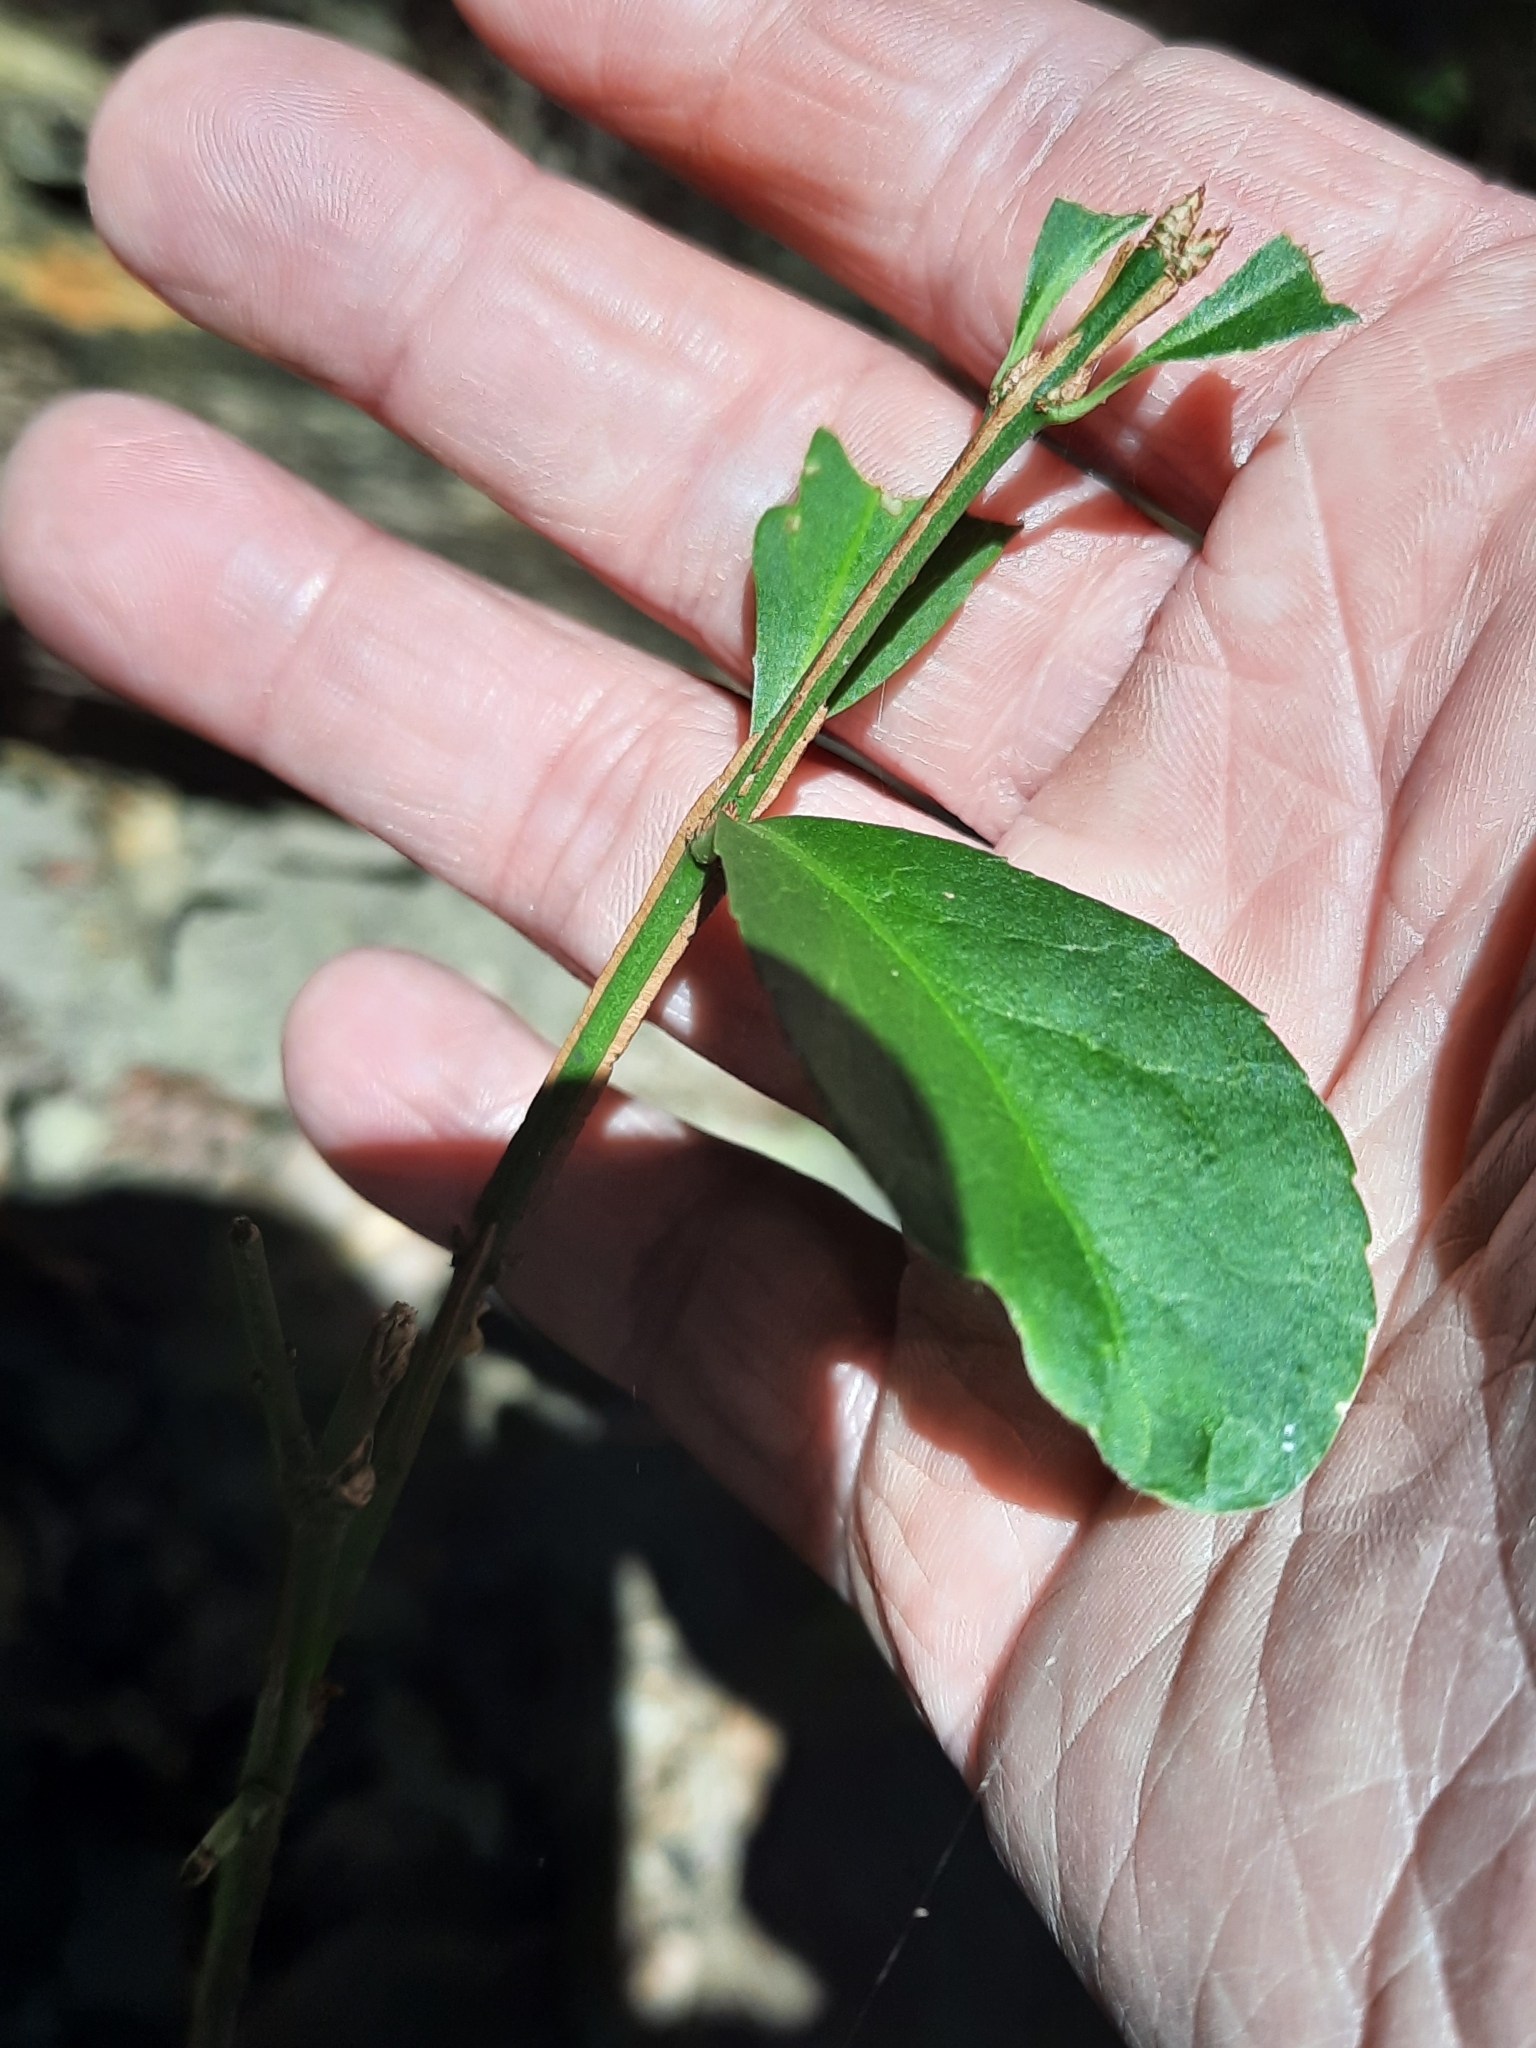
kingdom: Plantae
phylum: Tracheophyta
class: Magnoliopsida
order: Celastrales
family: Celastraceae
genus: Euonymus
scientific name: Euonymus alatus
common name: Winged euonymus
